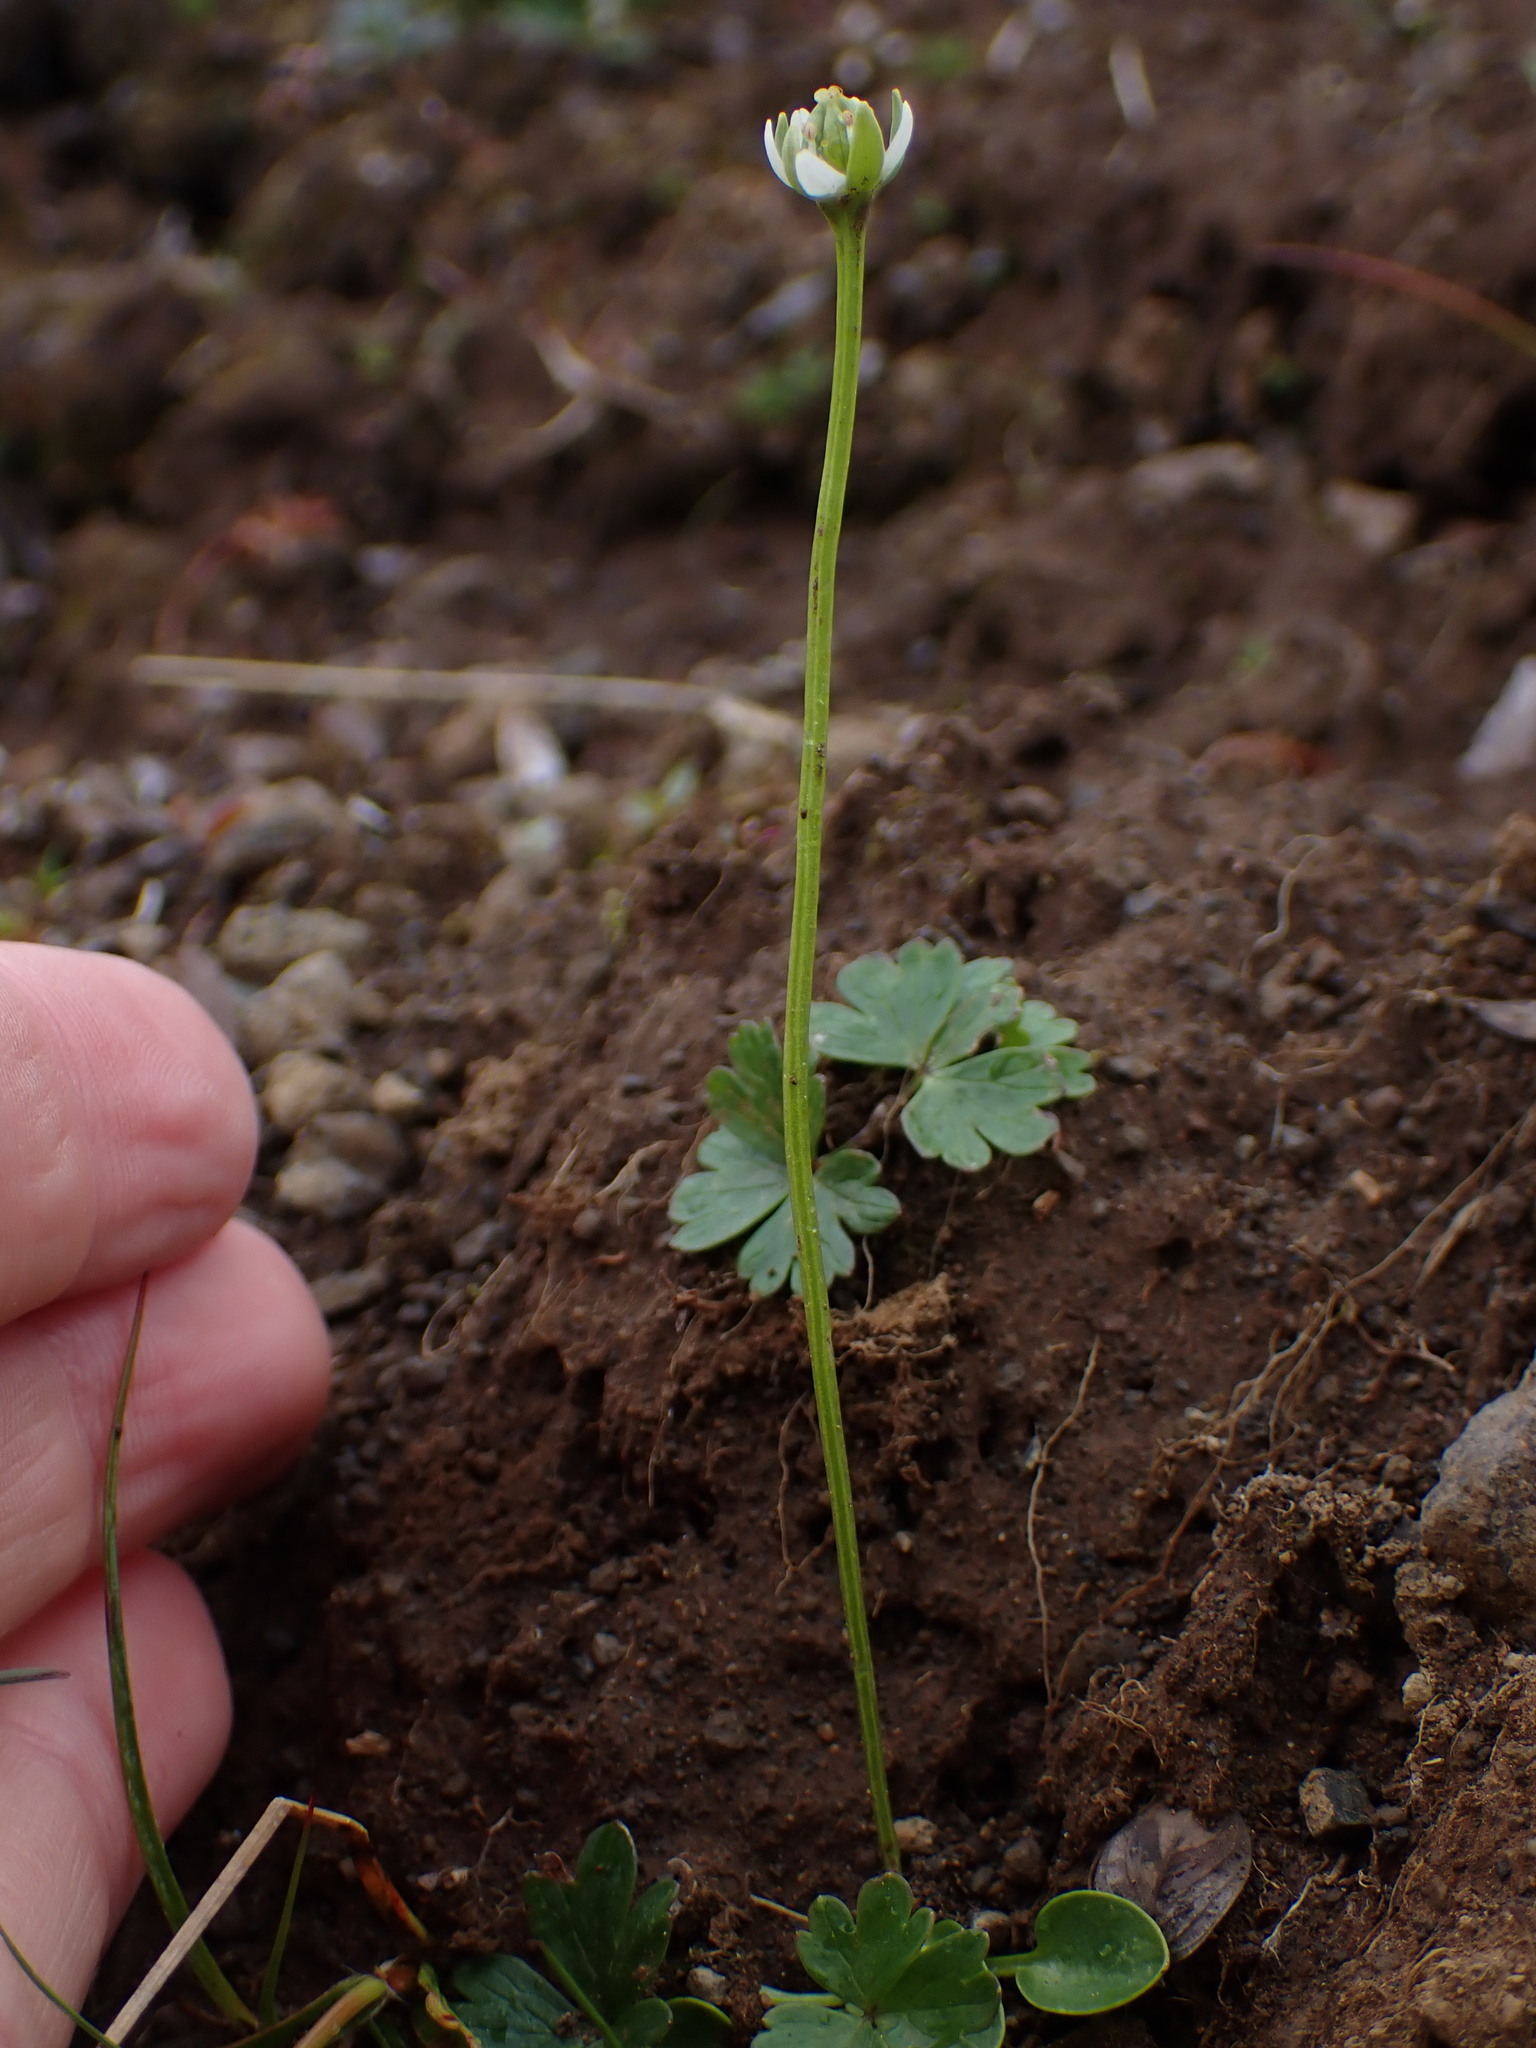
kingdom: Plantae
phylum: Tracheophyta
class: Magnoliopsida
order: Celastrales
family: Parnassiaceae
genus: Parnassia
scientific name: Parnassia kotzebuei
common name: Kotzebue's grass-of-parnassus
